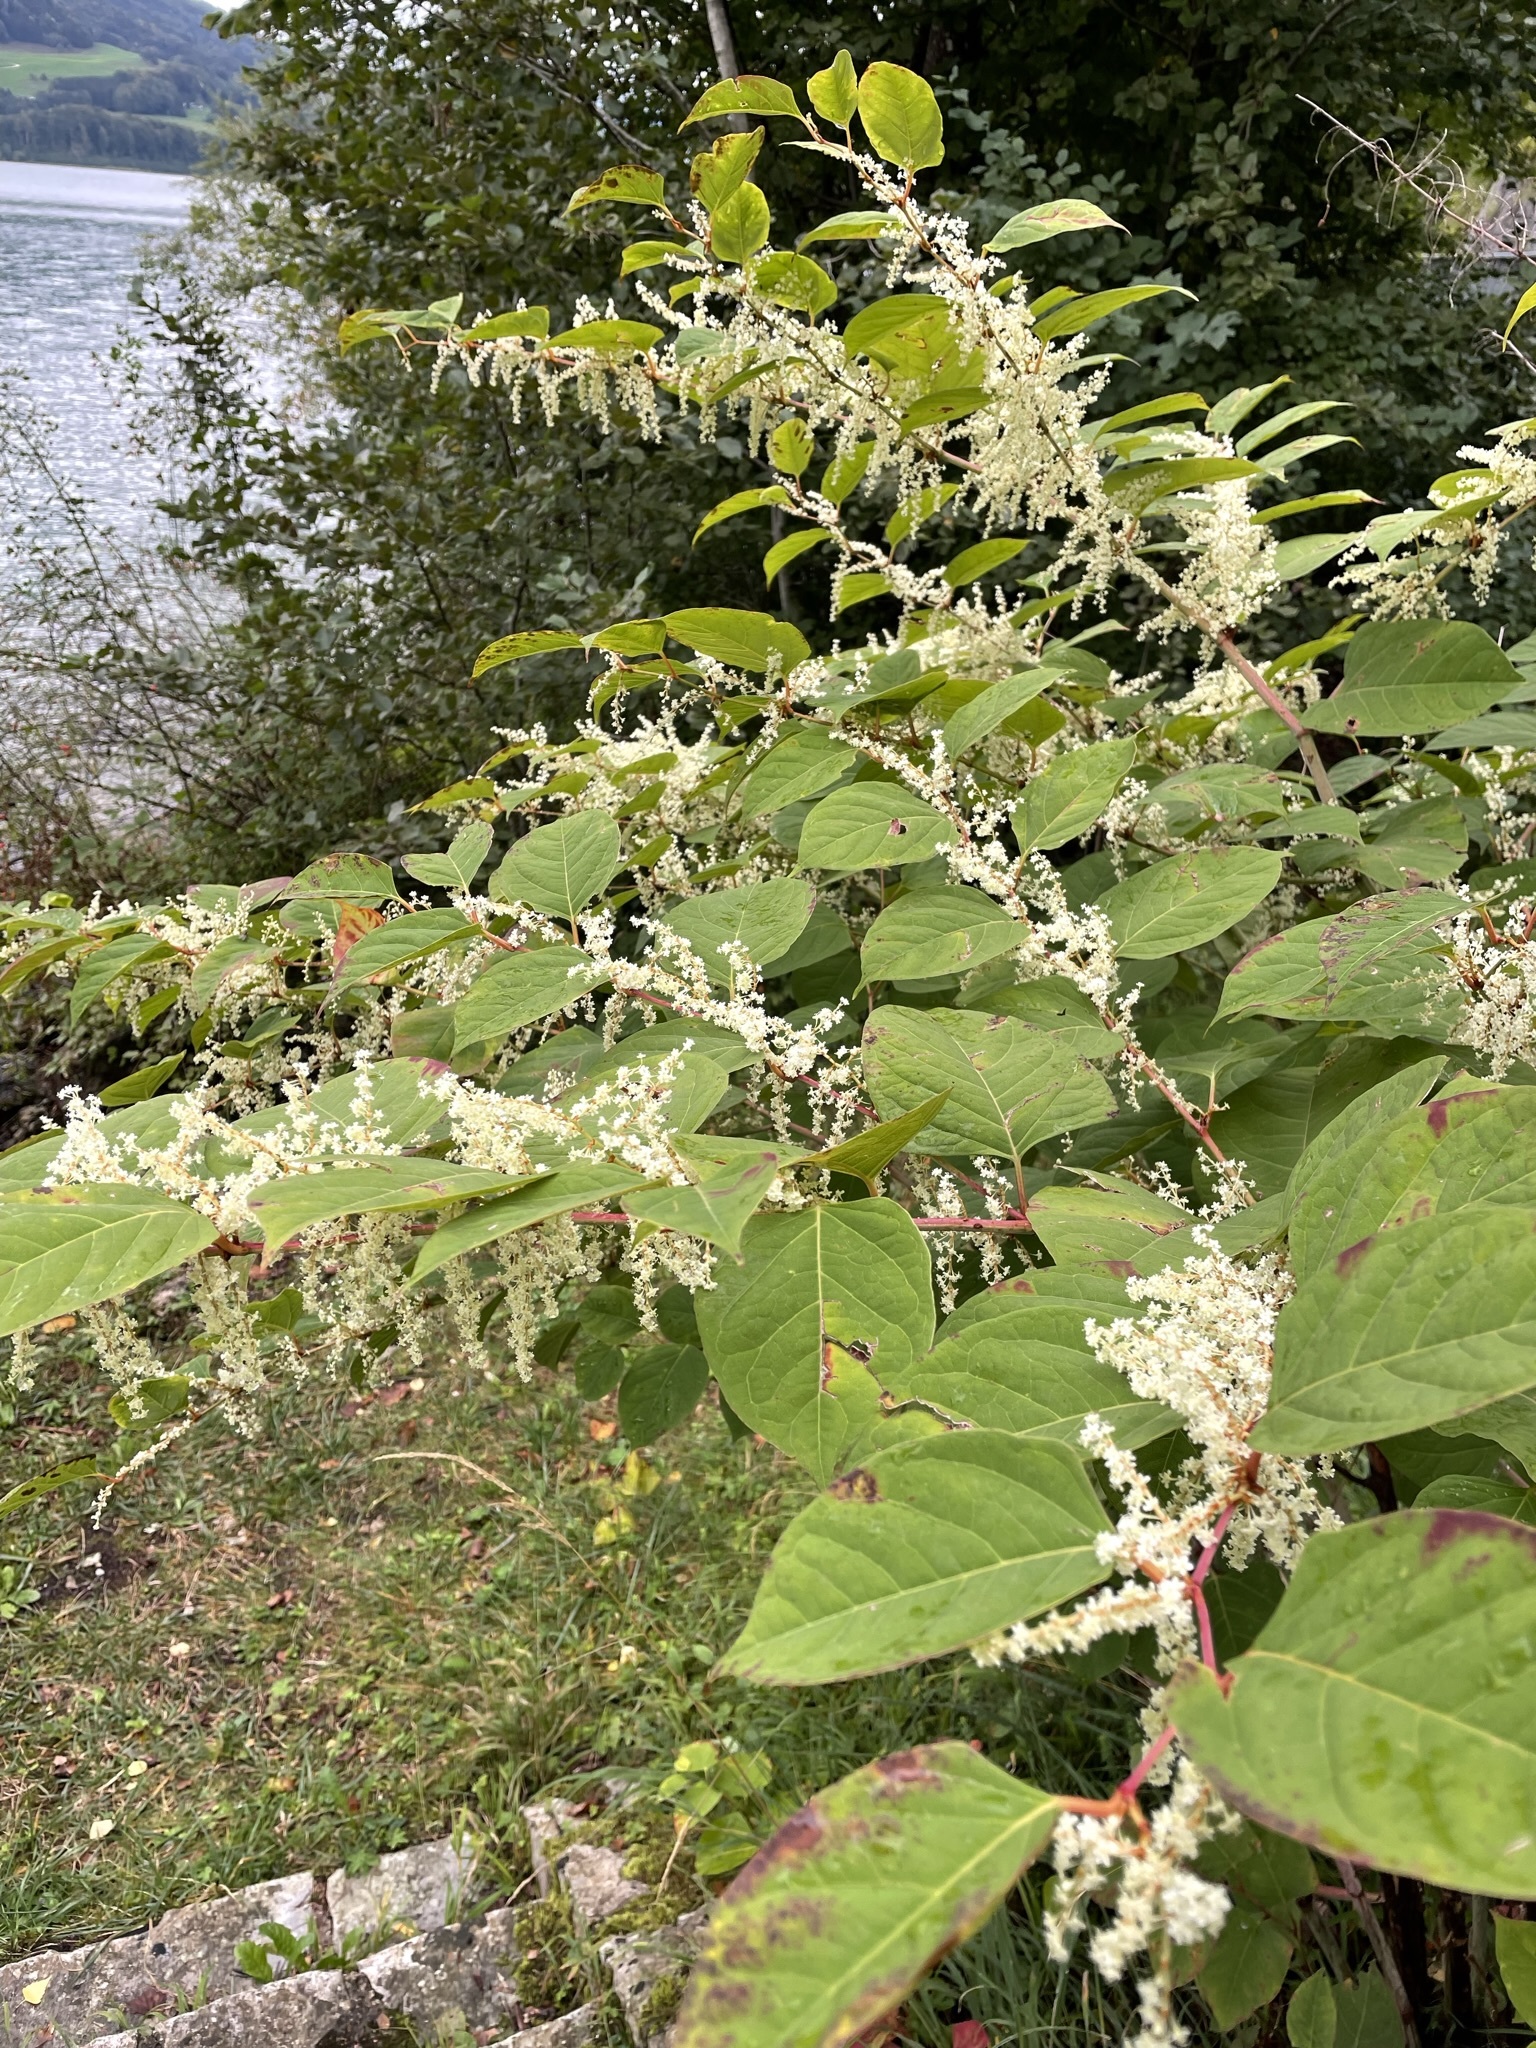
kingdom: Plantae
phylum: Tracheophyta
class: Magnoliopsida
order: Caryophyllales
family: Polygonaceae
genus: Reynoutria
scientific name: Reynoutria japonica
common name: Japanese knotweed
